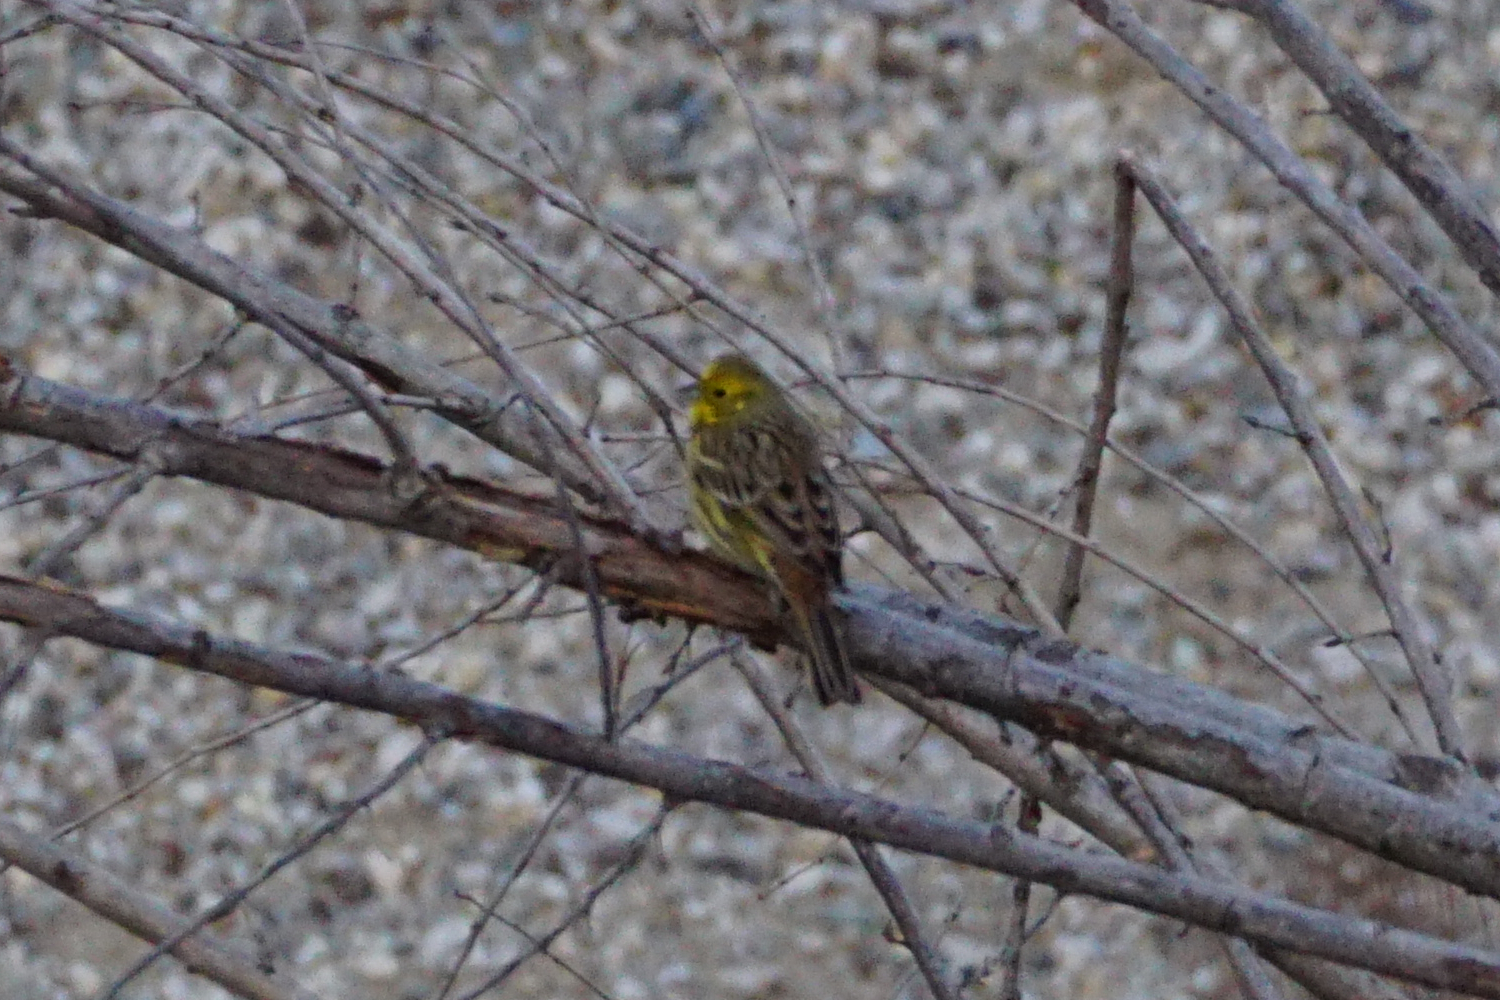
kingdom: Animalia
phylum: Chordata
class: Aves
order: Passeriformes
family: Emberizidae
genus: Emberiza
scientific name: Emberiza citrinella
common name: Yellowhammer
